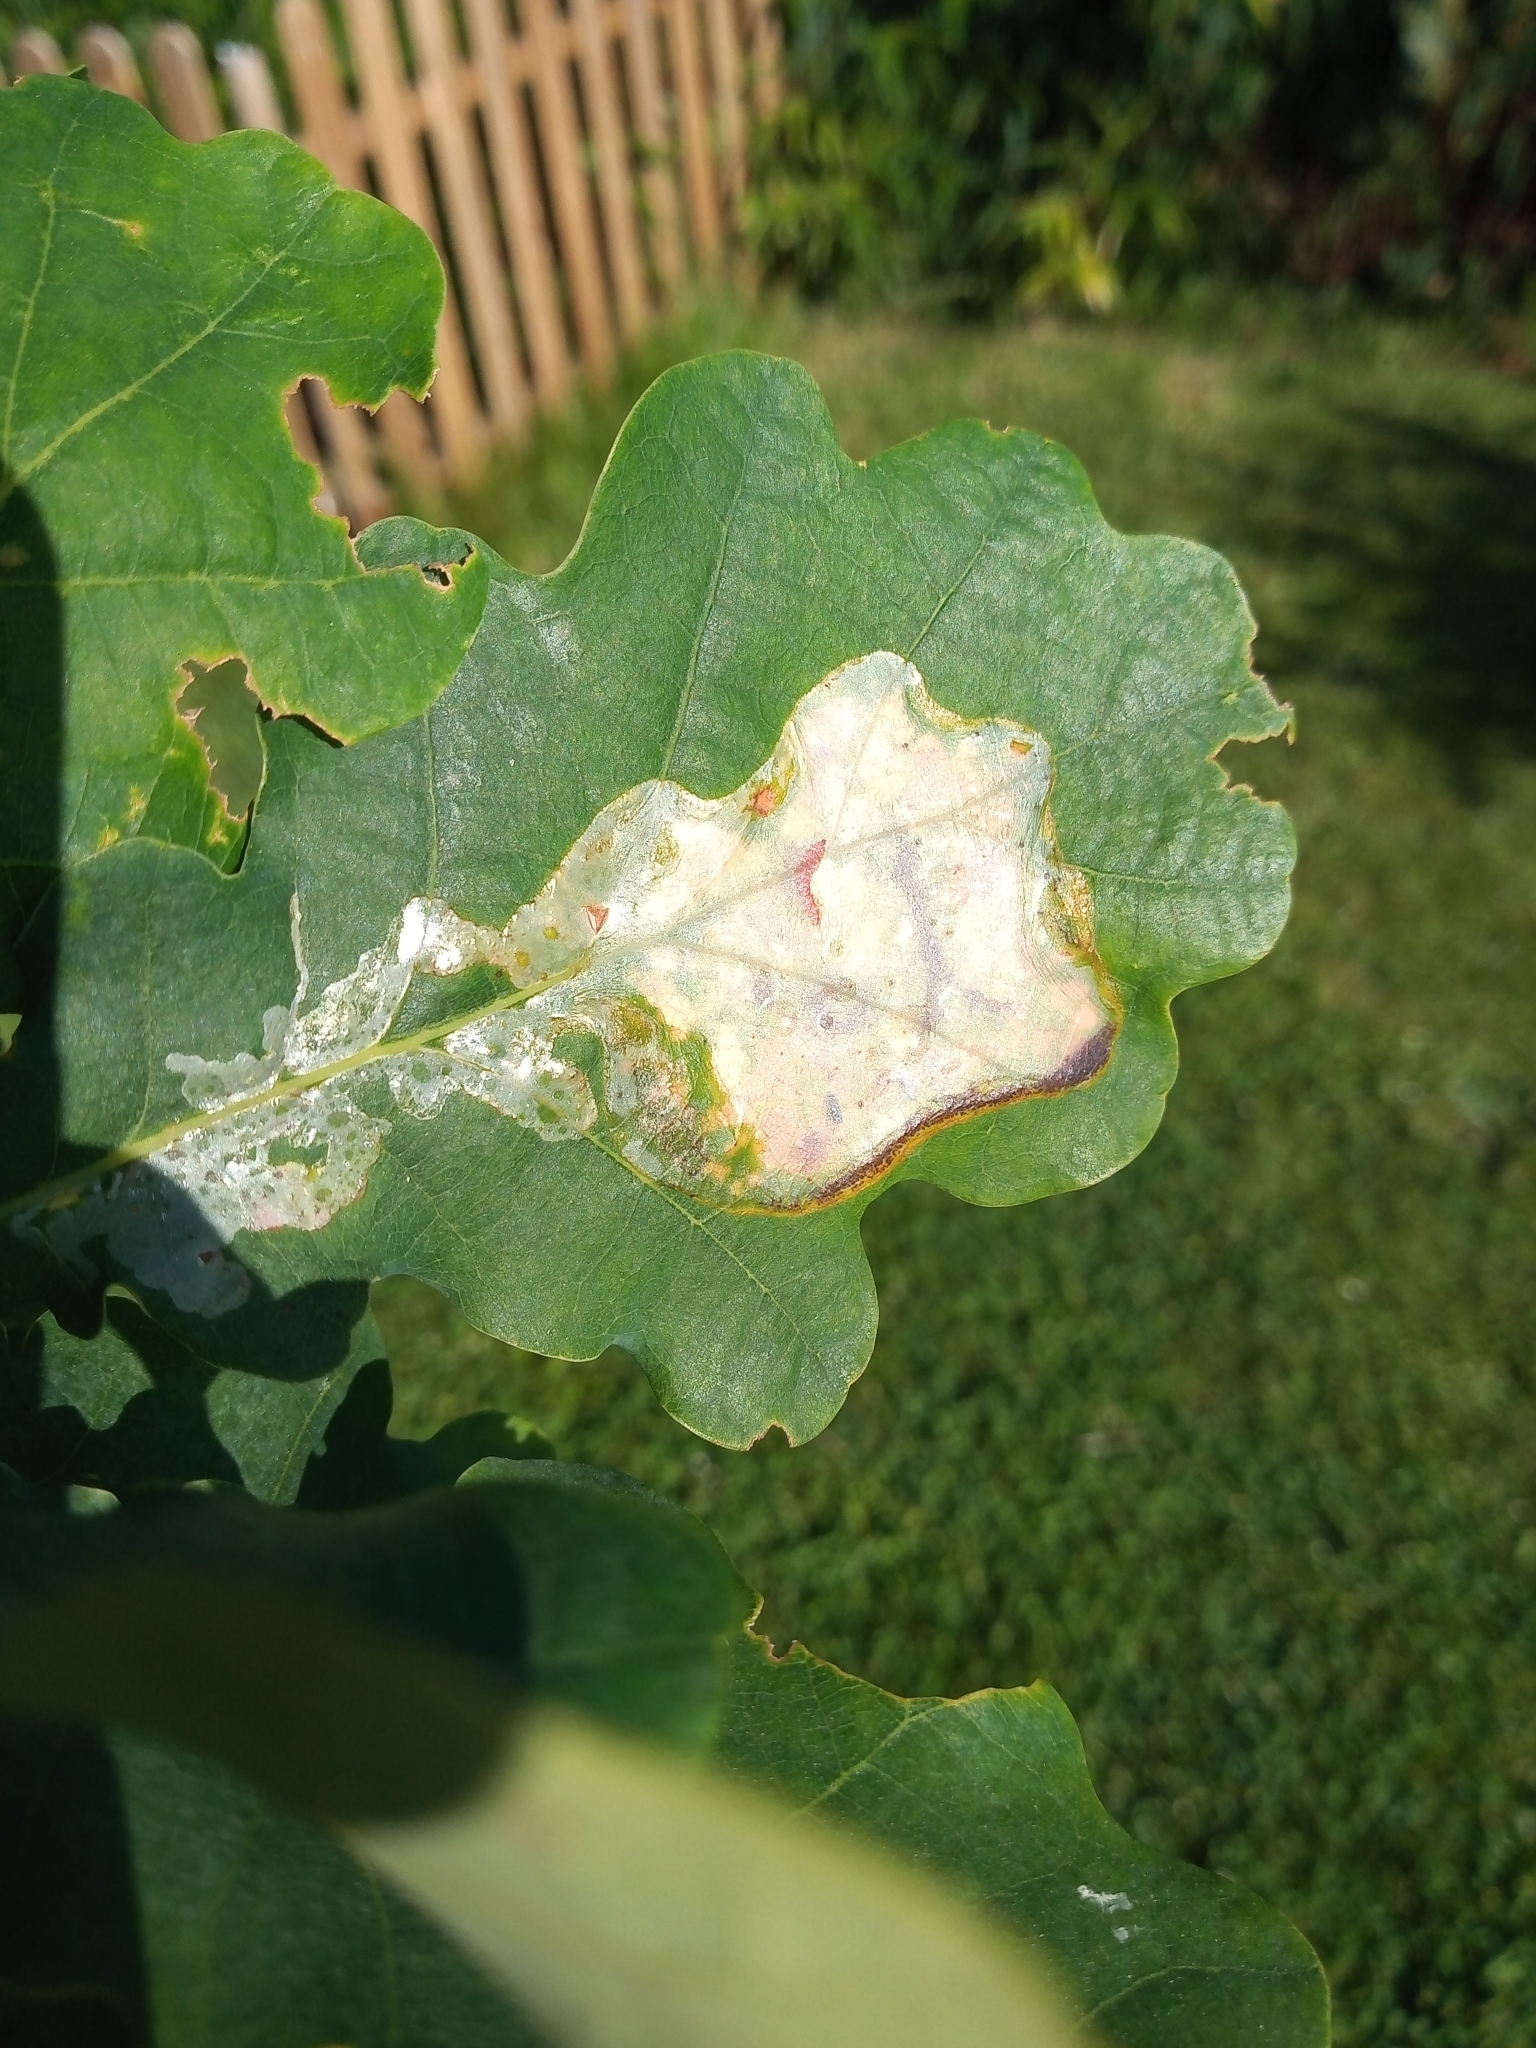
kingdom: Animalia
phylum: Arthropoda
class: Insecta
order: Lepidoptera
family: Gracillariidae
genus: Acrocercops
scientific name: Acrocercops brongniardella
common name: Brown oak slender
